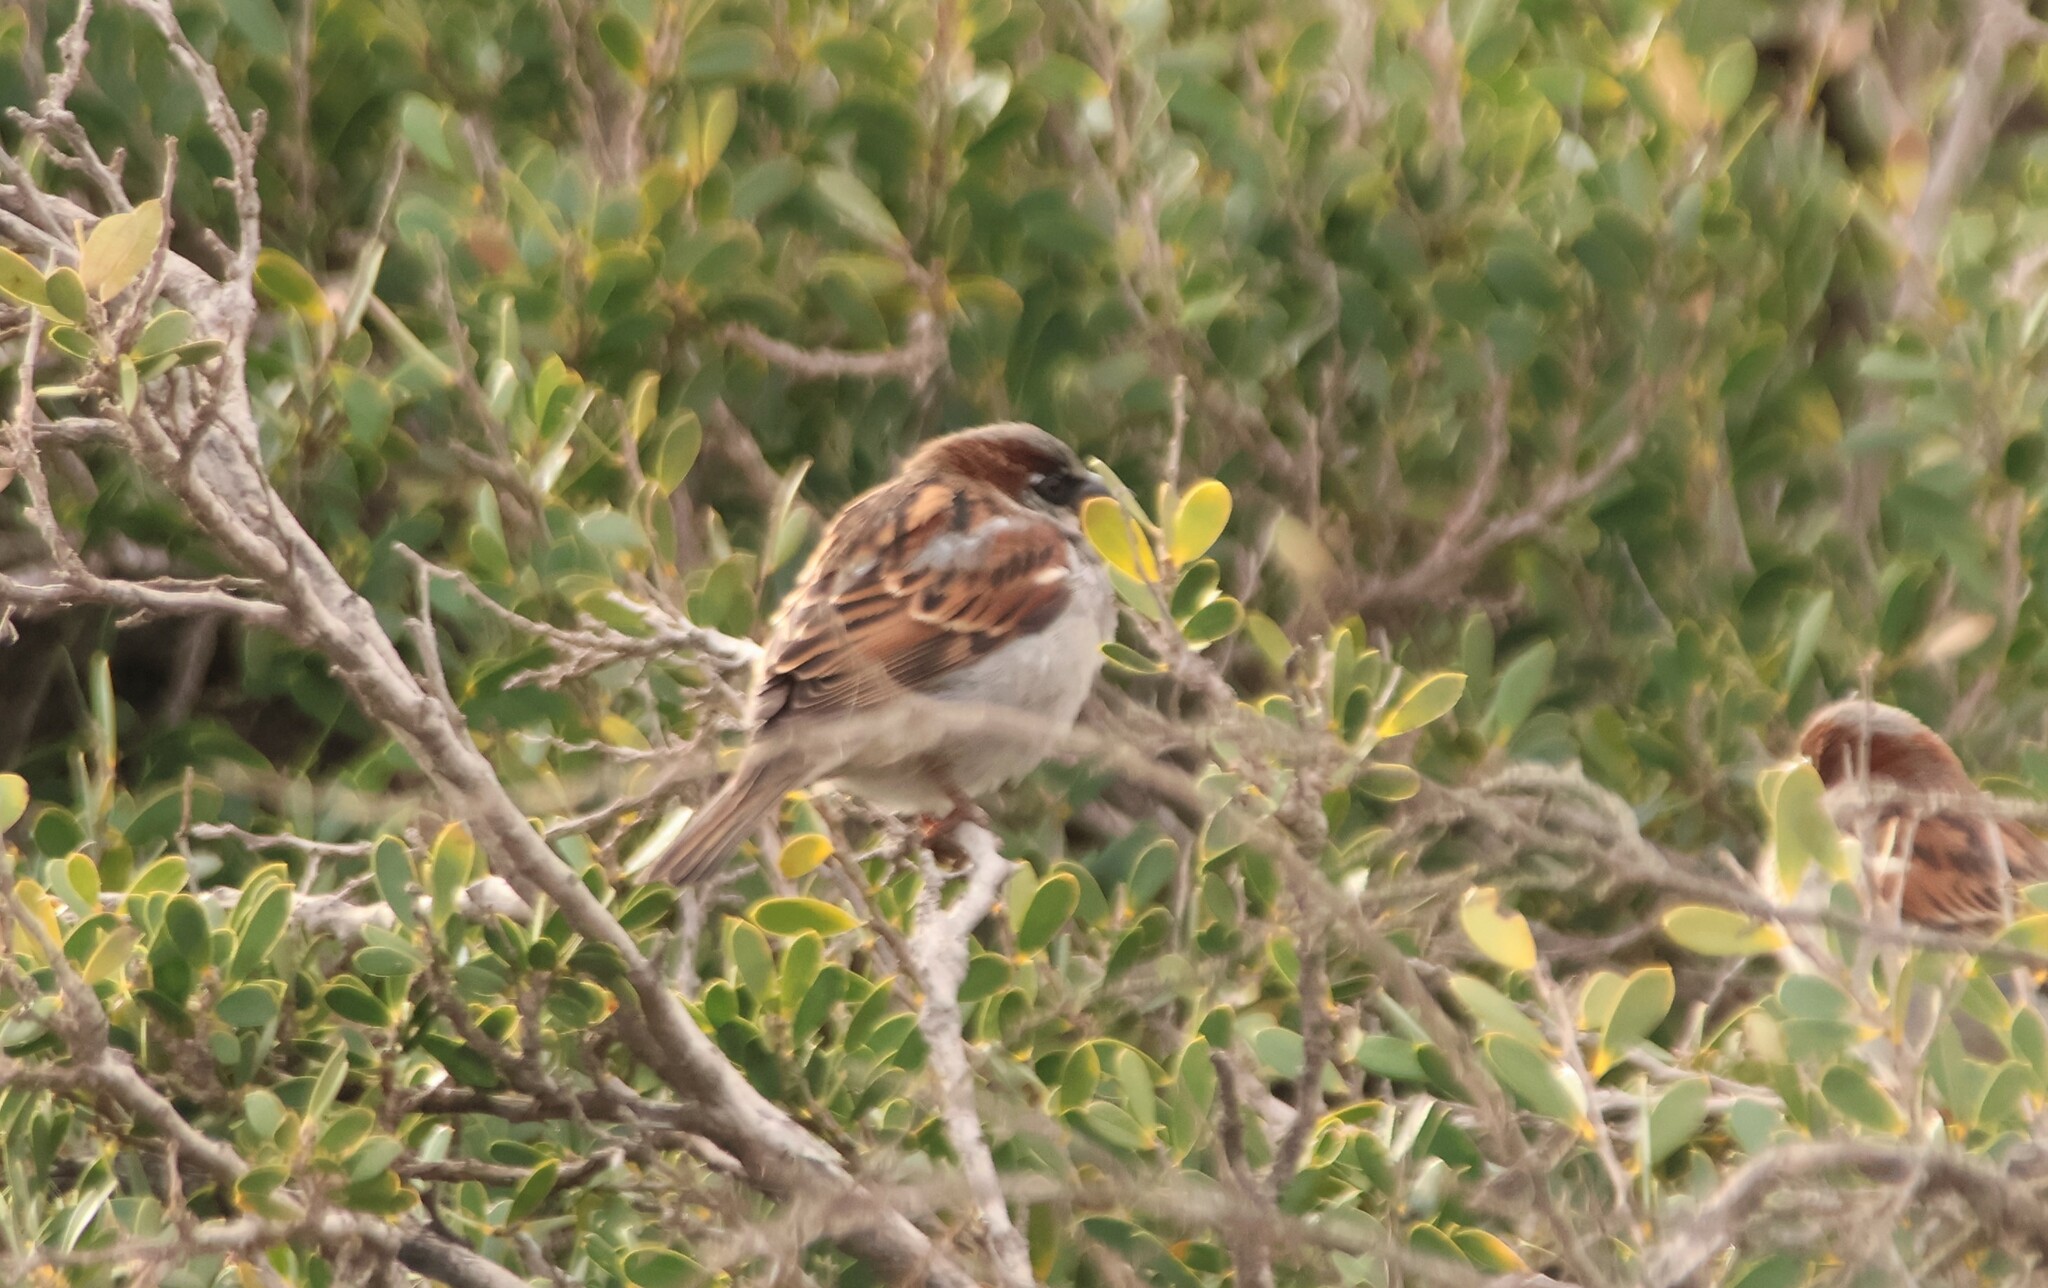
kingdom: Animalia
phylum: Chordata
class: Aves
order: Passeriformes
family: Passeridae
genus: Passer
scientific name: Passer domesticus
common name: House sparrow
